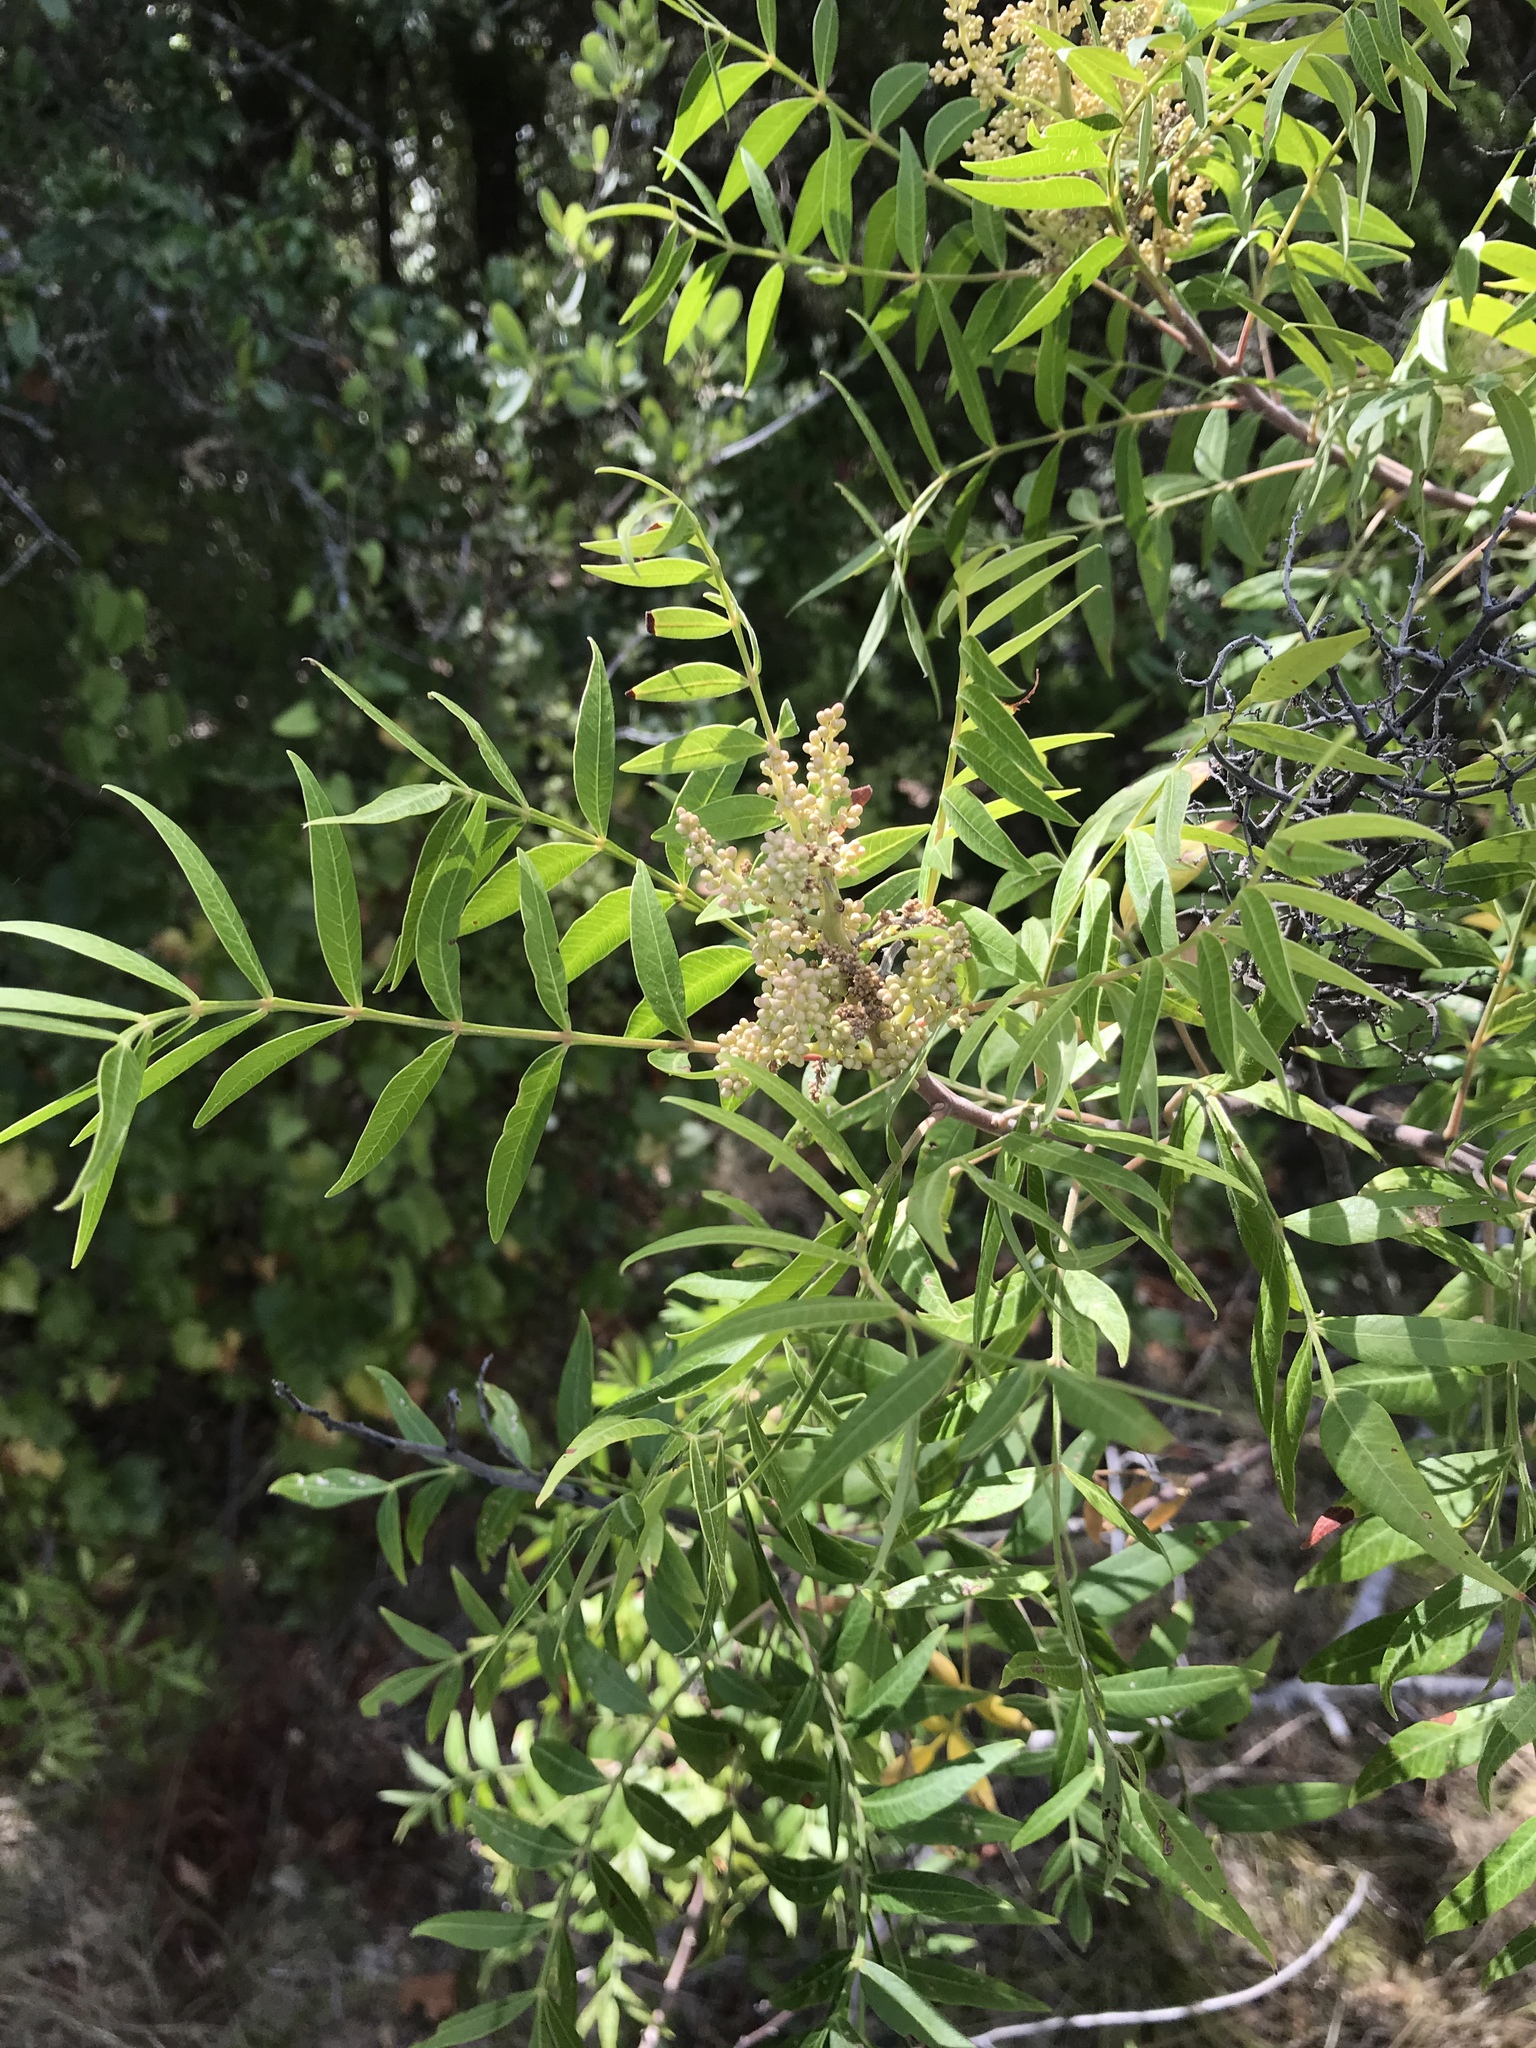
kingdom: Plantae
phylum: Tracheophyta
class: Magnoliopsida
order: Sapindales
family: Anacardiaceae
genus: Rhus
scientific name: Rhus lanceolata
